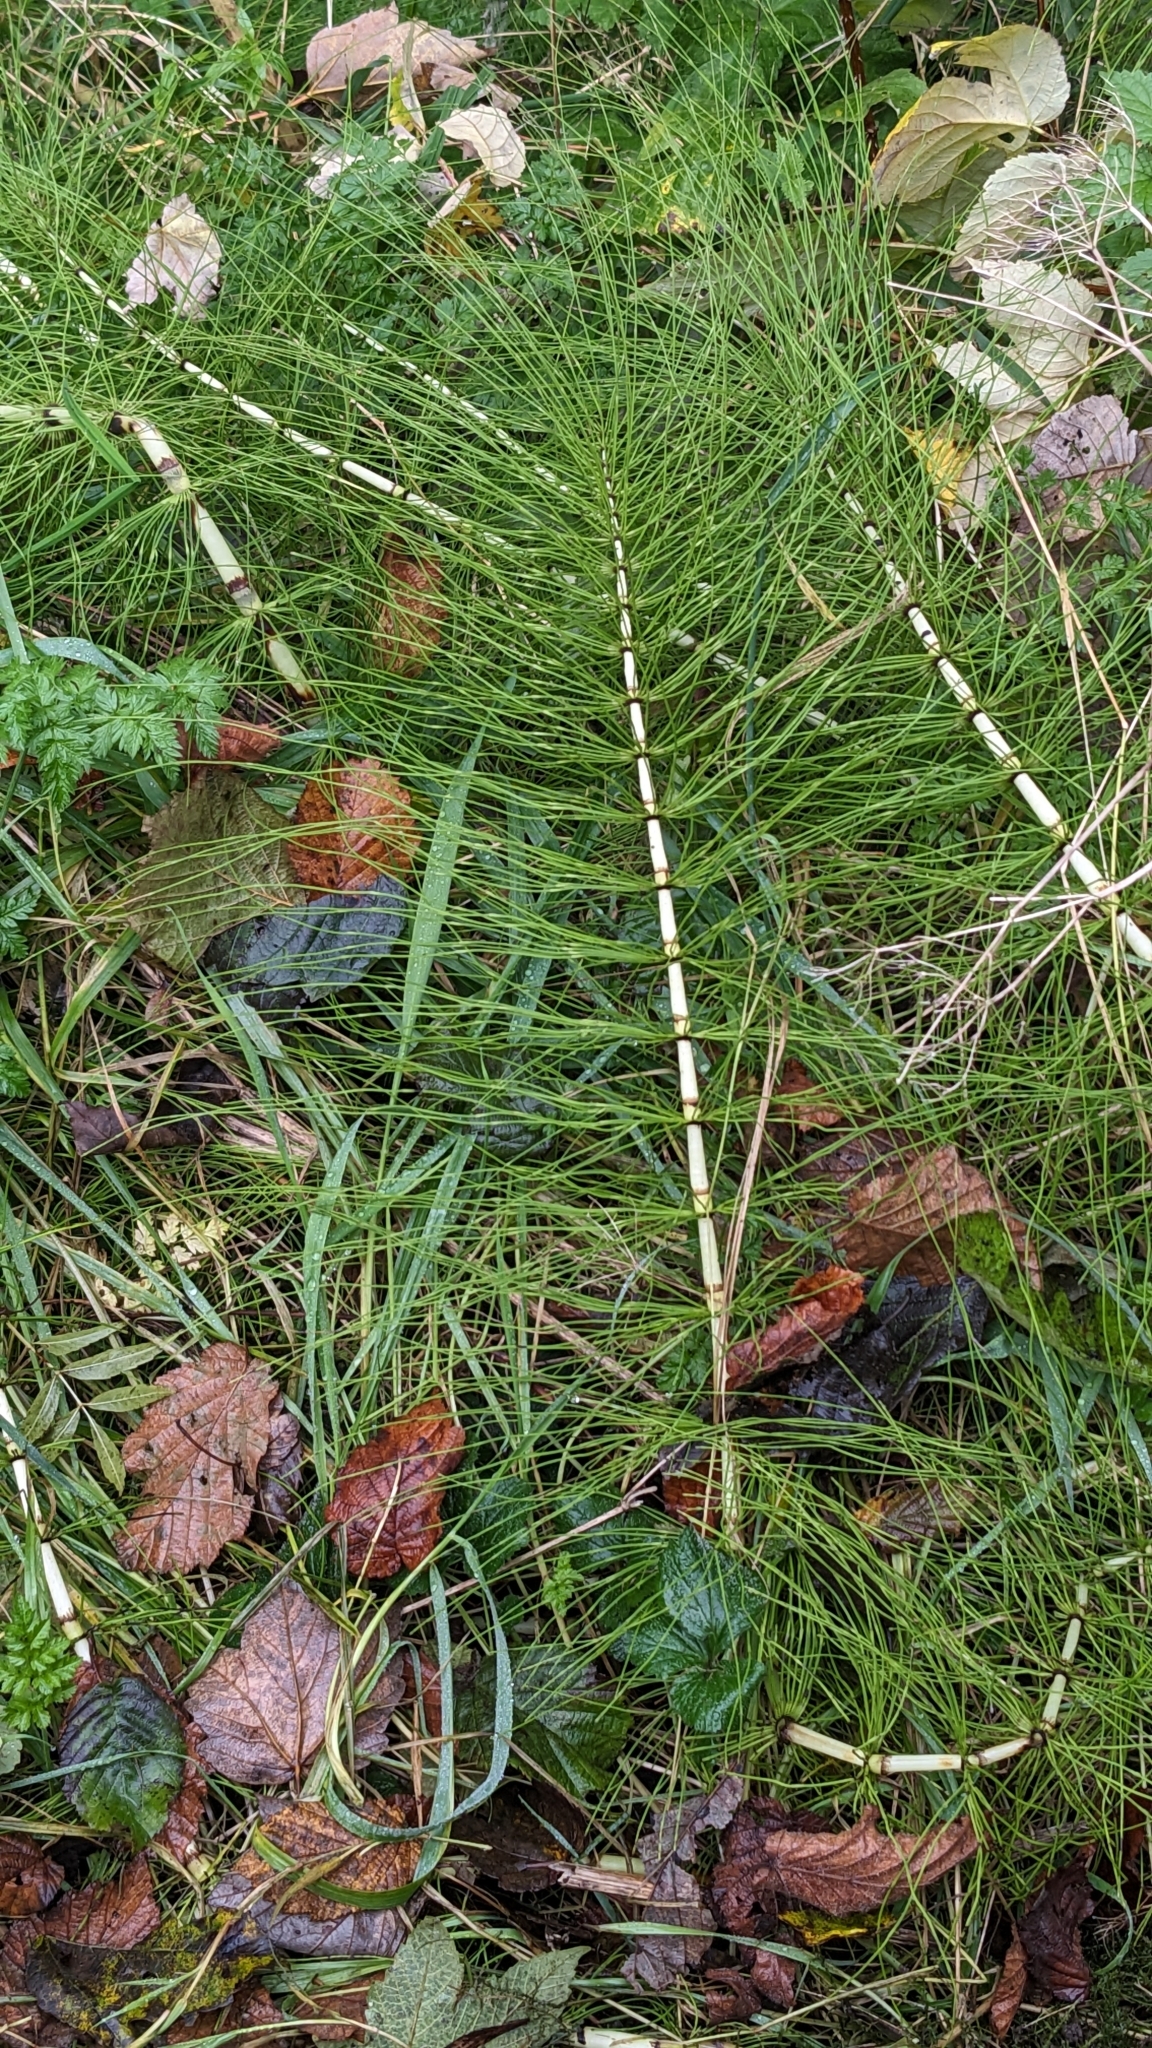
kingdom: Plantae
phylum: Tracheophyta
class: Polypodiopsida
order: Equisetales
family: Equisetaceae
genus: Equisetum
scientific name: Equisetum telmateia
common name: Great horsetail
